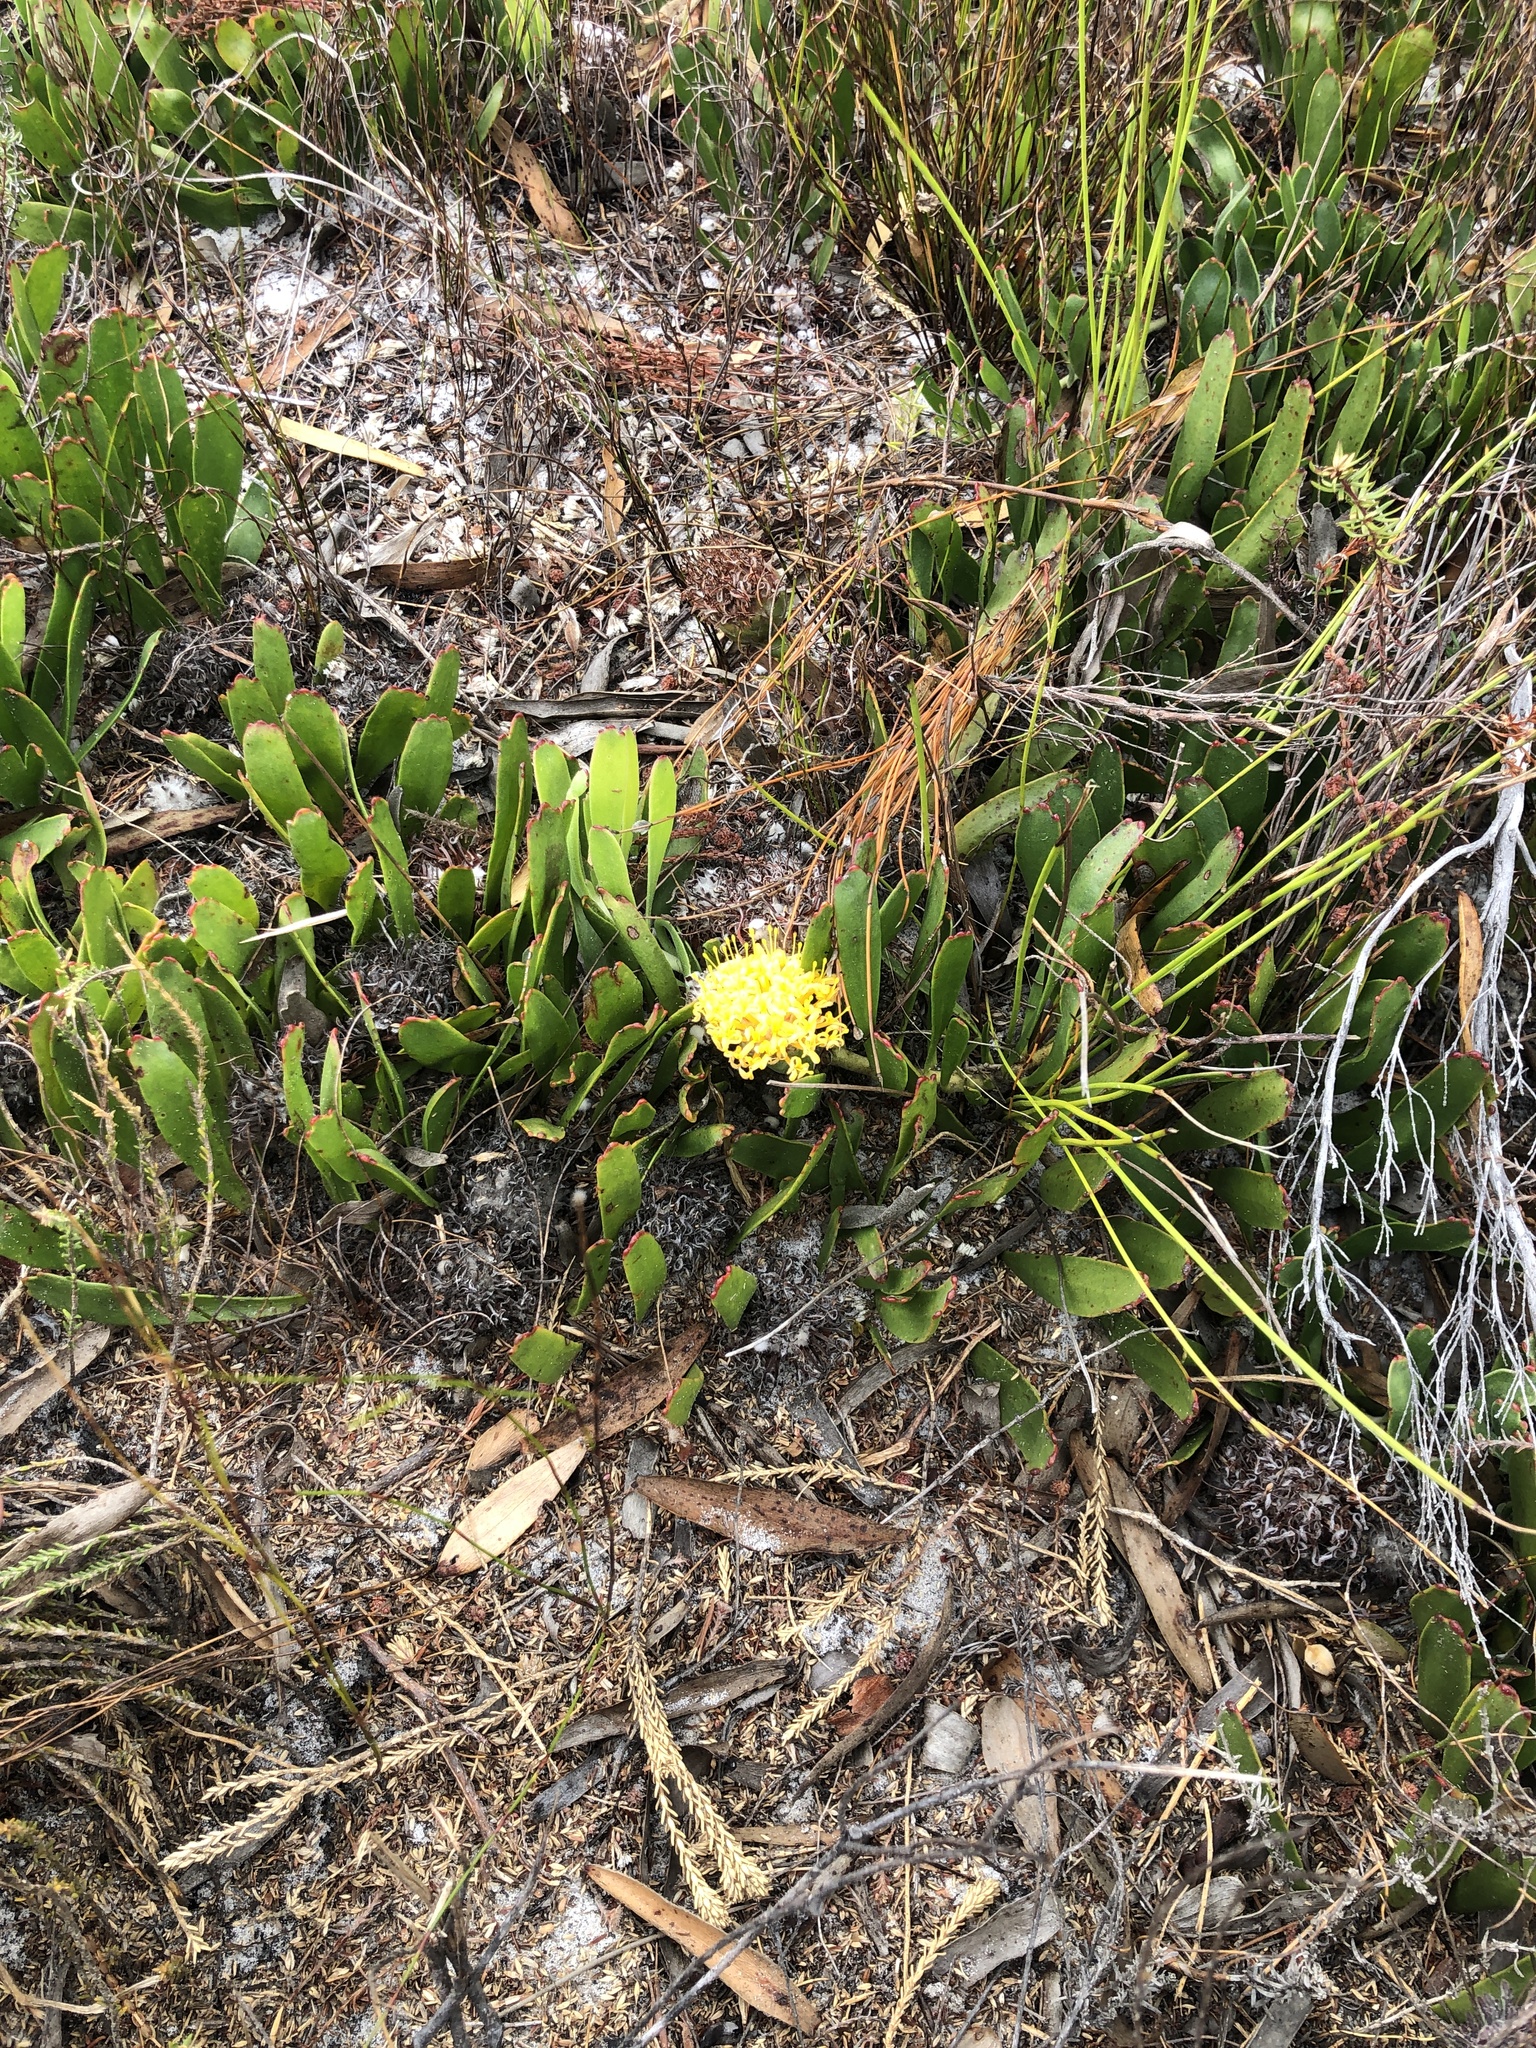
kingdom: Plantae
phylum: Tracheophyta
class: Magnoliopsida
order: Proteales
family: Proteaceae
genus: Leucospermum
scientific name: Leucospermum hypophyllocarpodendron
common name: Snakestem pincushion
